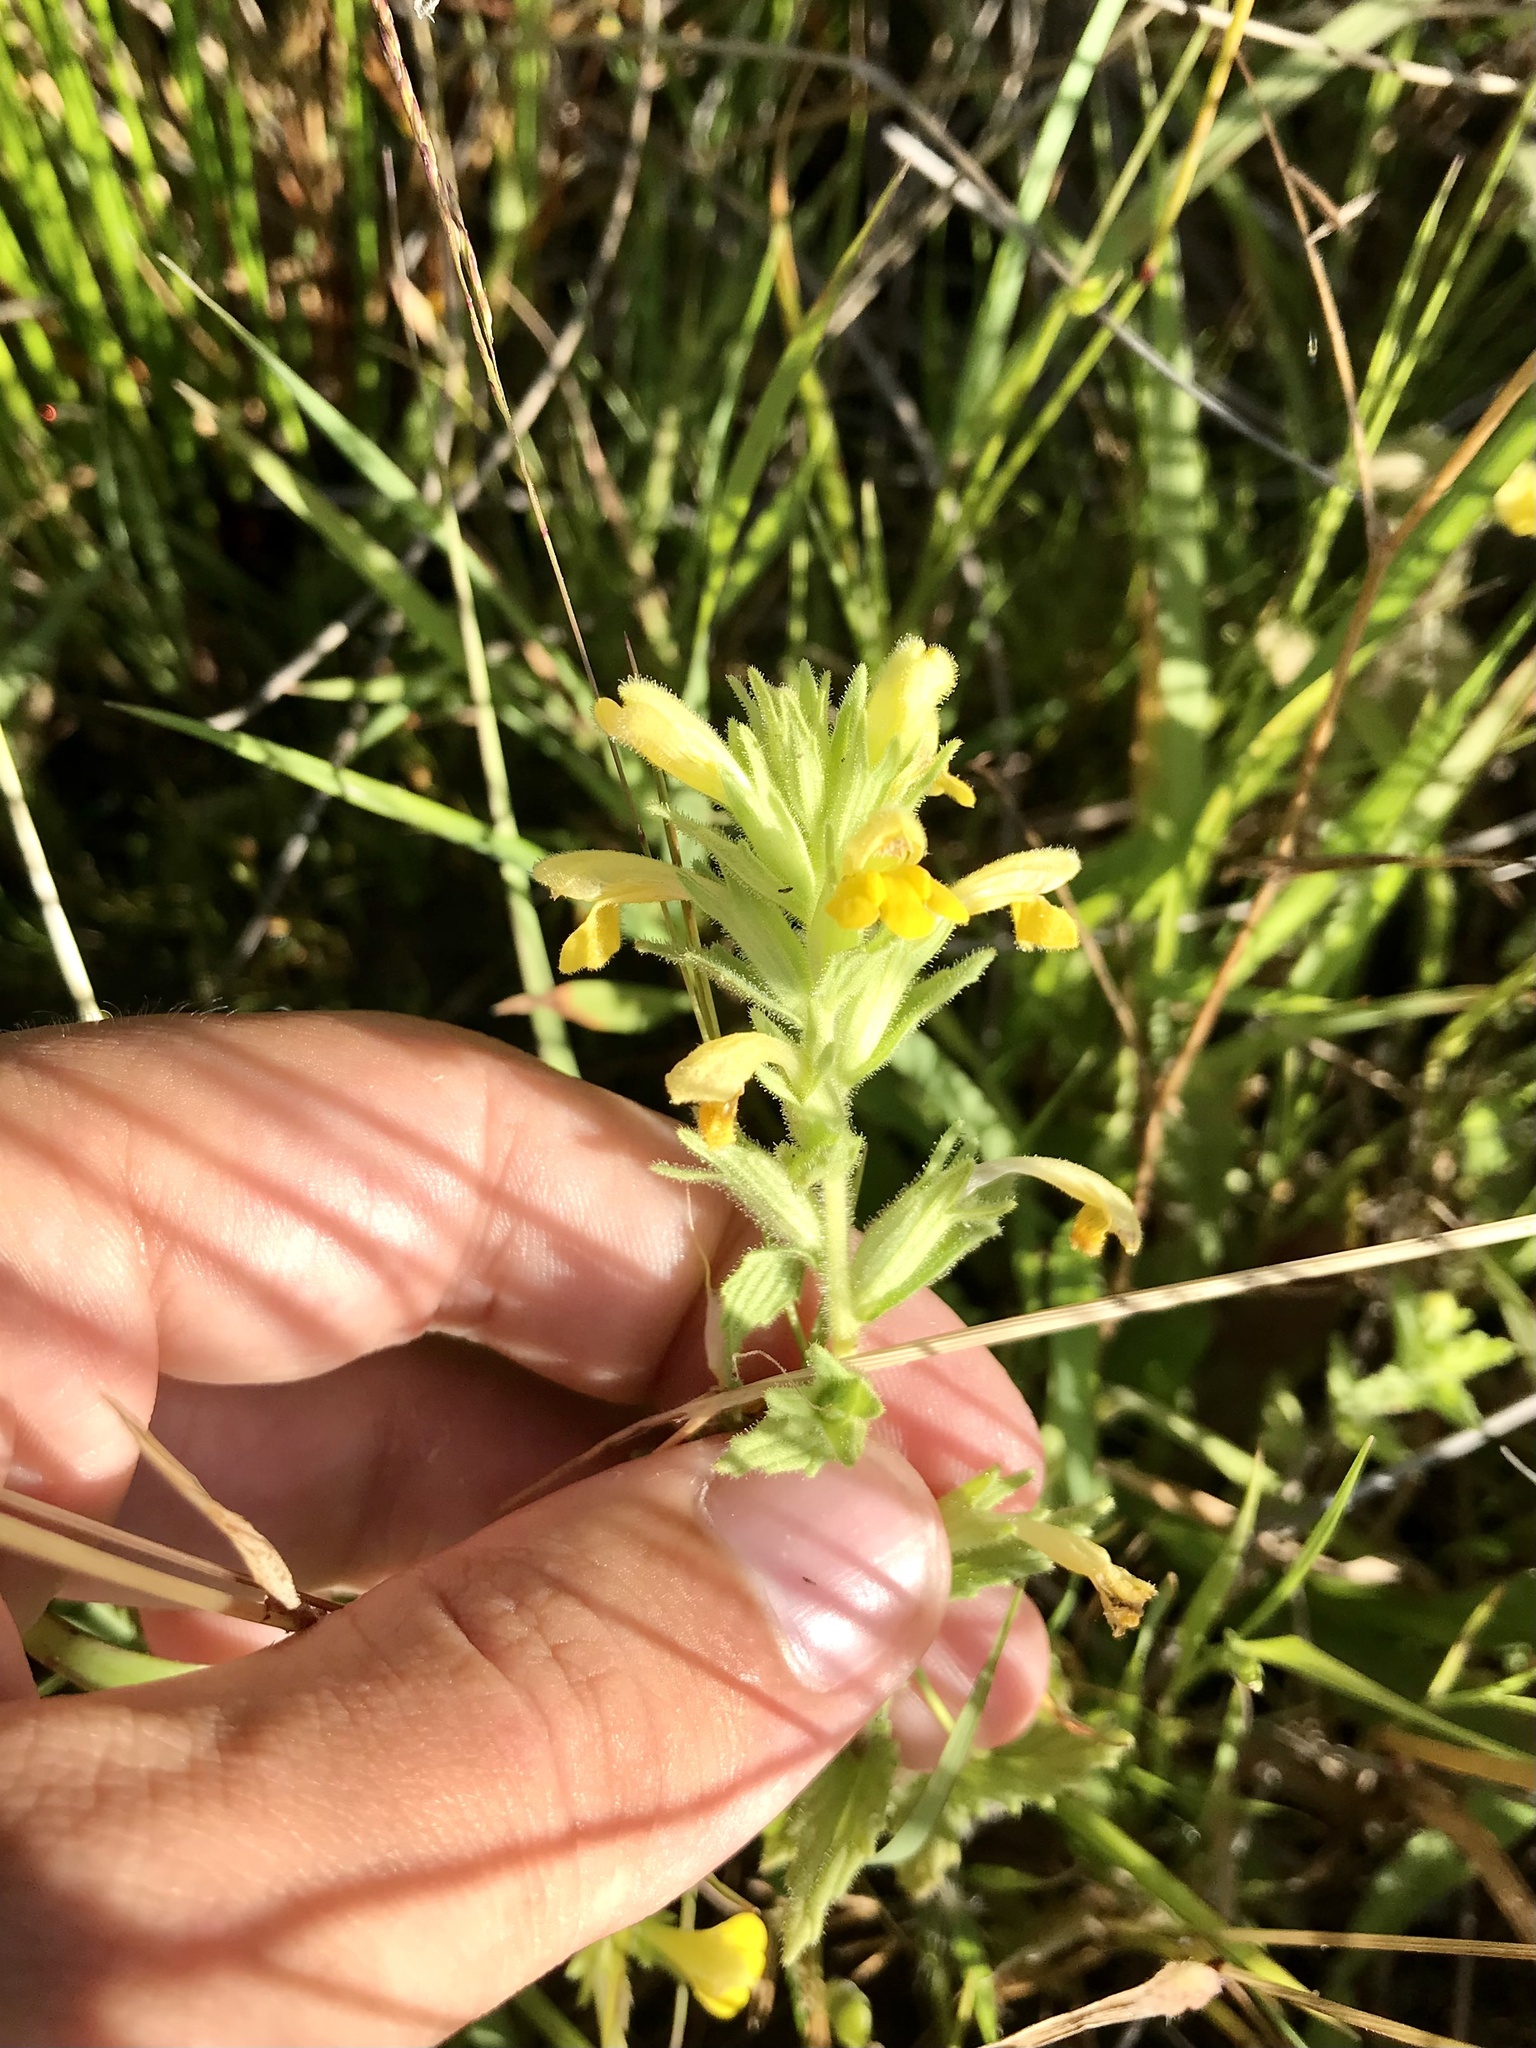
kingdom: Plantae
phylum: Tracheophyta
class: Magnoliopsida
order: Lamiales
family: Orobanchaceae
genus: Bellardia
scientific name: Bellardia viscosa
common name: Sticky parentucellia
